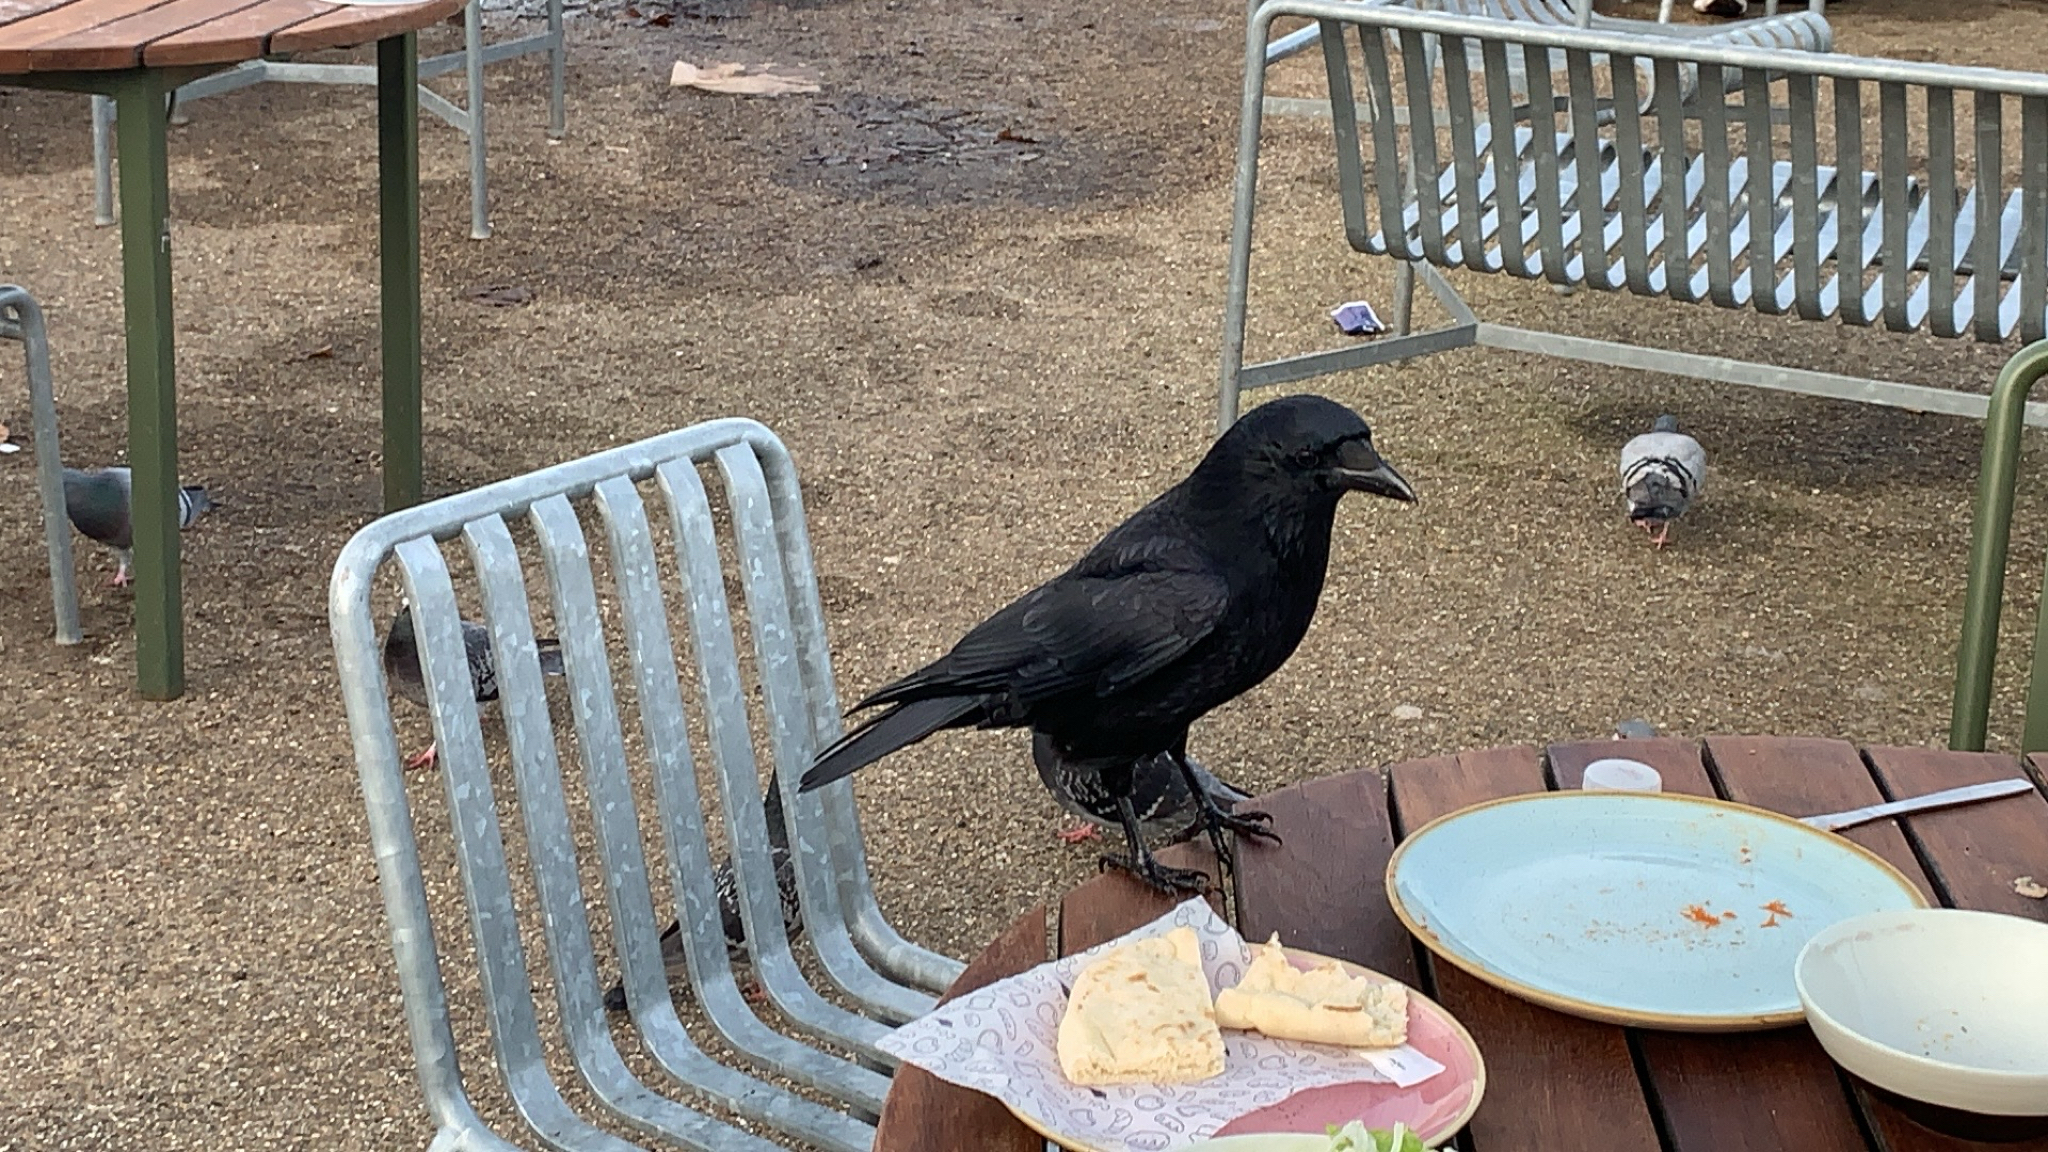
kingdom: Animalia
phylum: Chordata
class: Aves
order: Passeriformes
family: Corvidae
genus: Corvus
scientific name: Corvus corone
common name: Carrion crow
